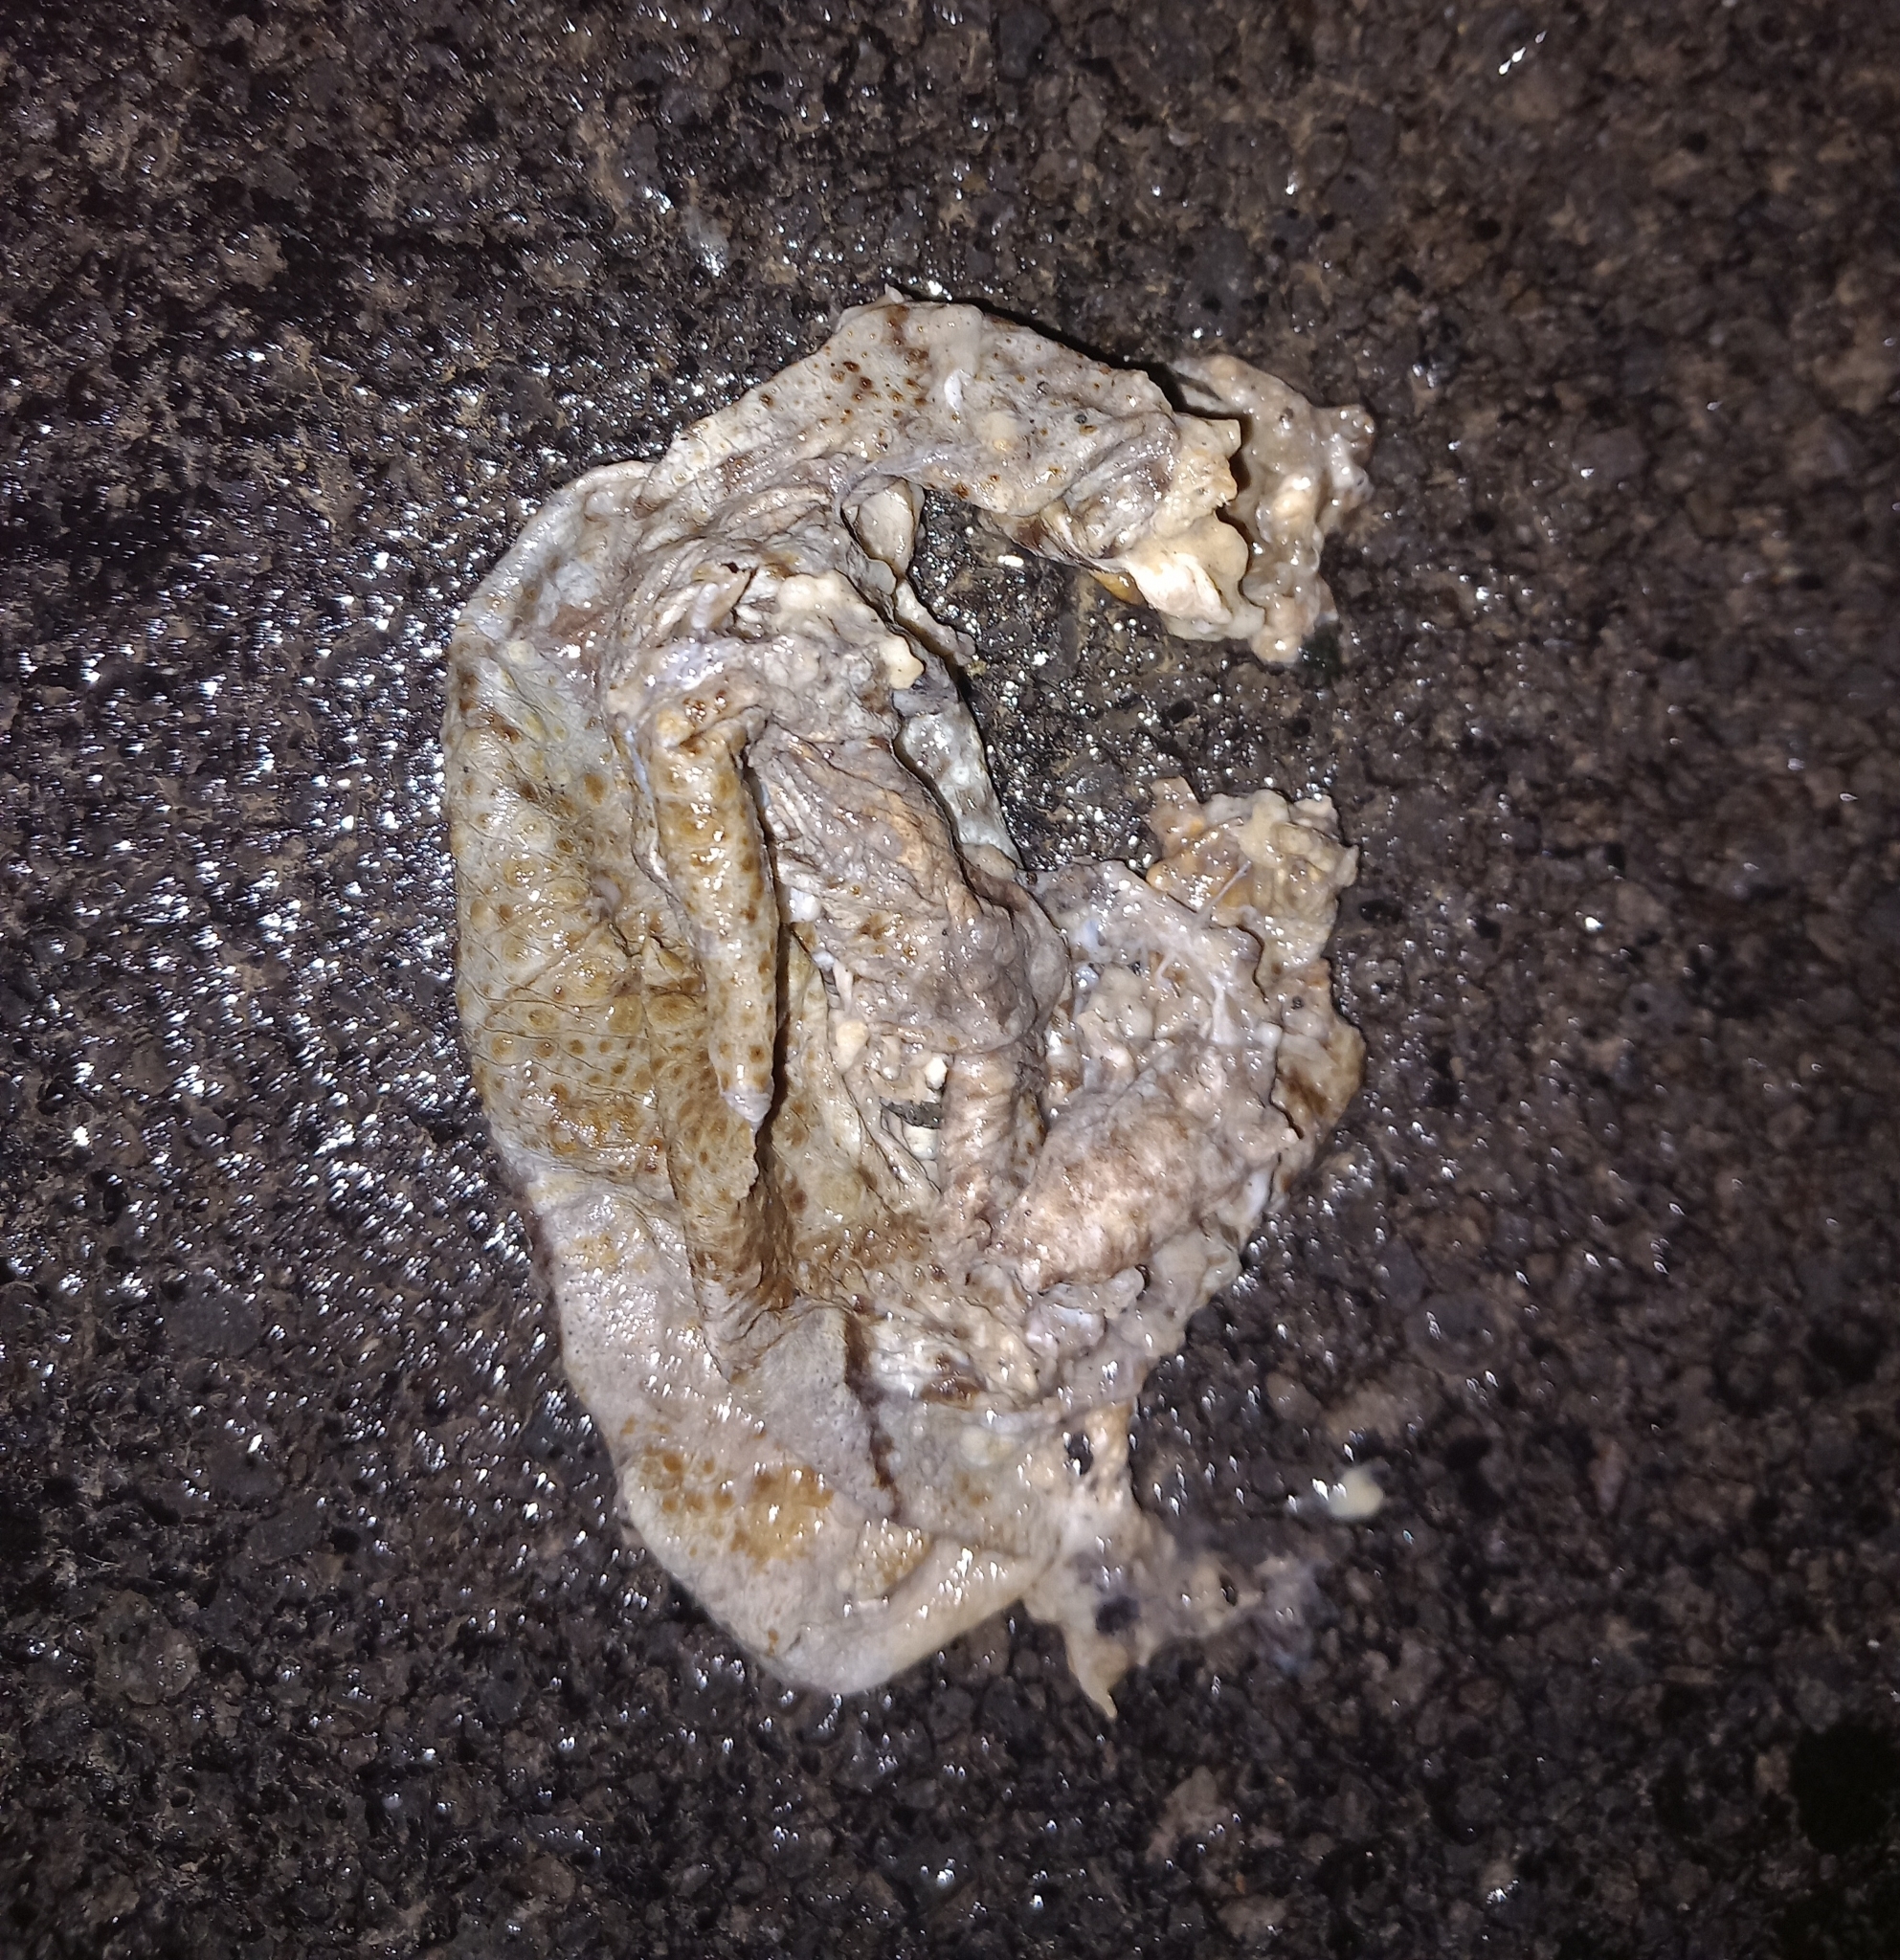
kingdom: Animalia
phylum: Chordata
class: Amphibia
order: Anura
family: Bufonidae
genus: Bufo
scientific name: Bufo bufo
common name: Common toad
